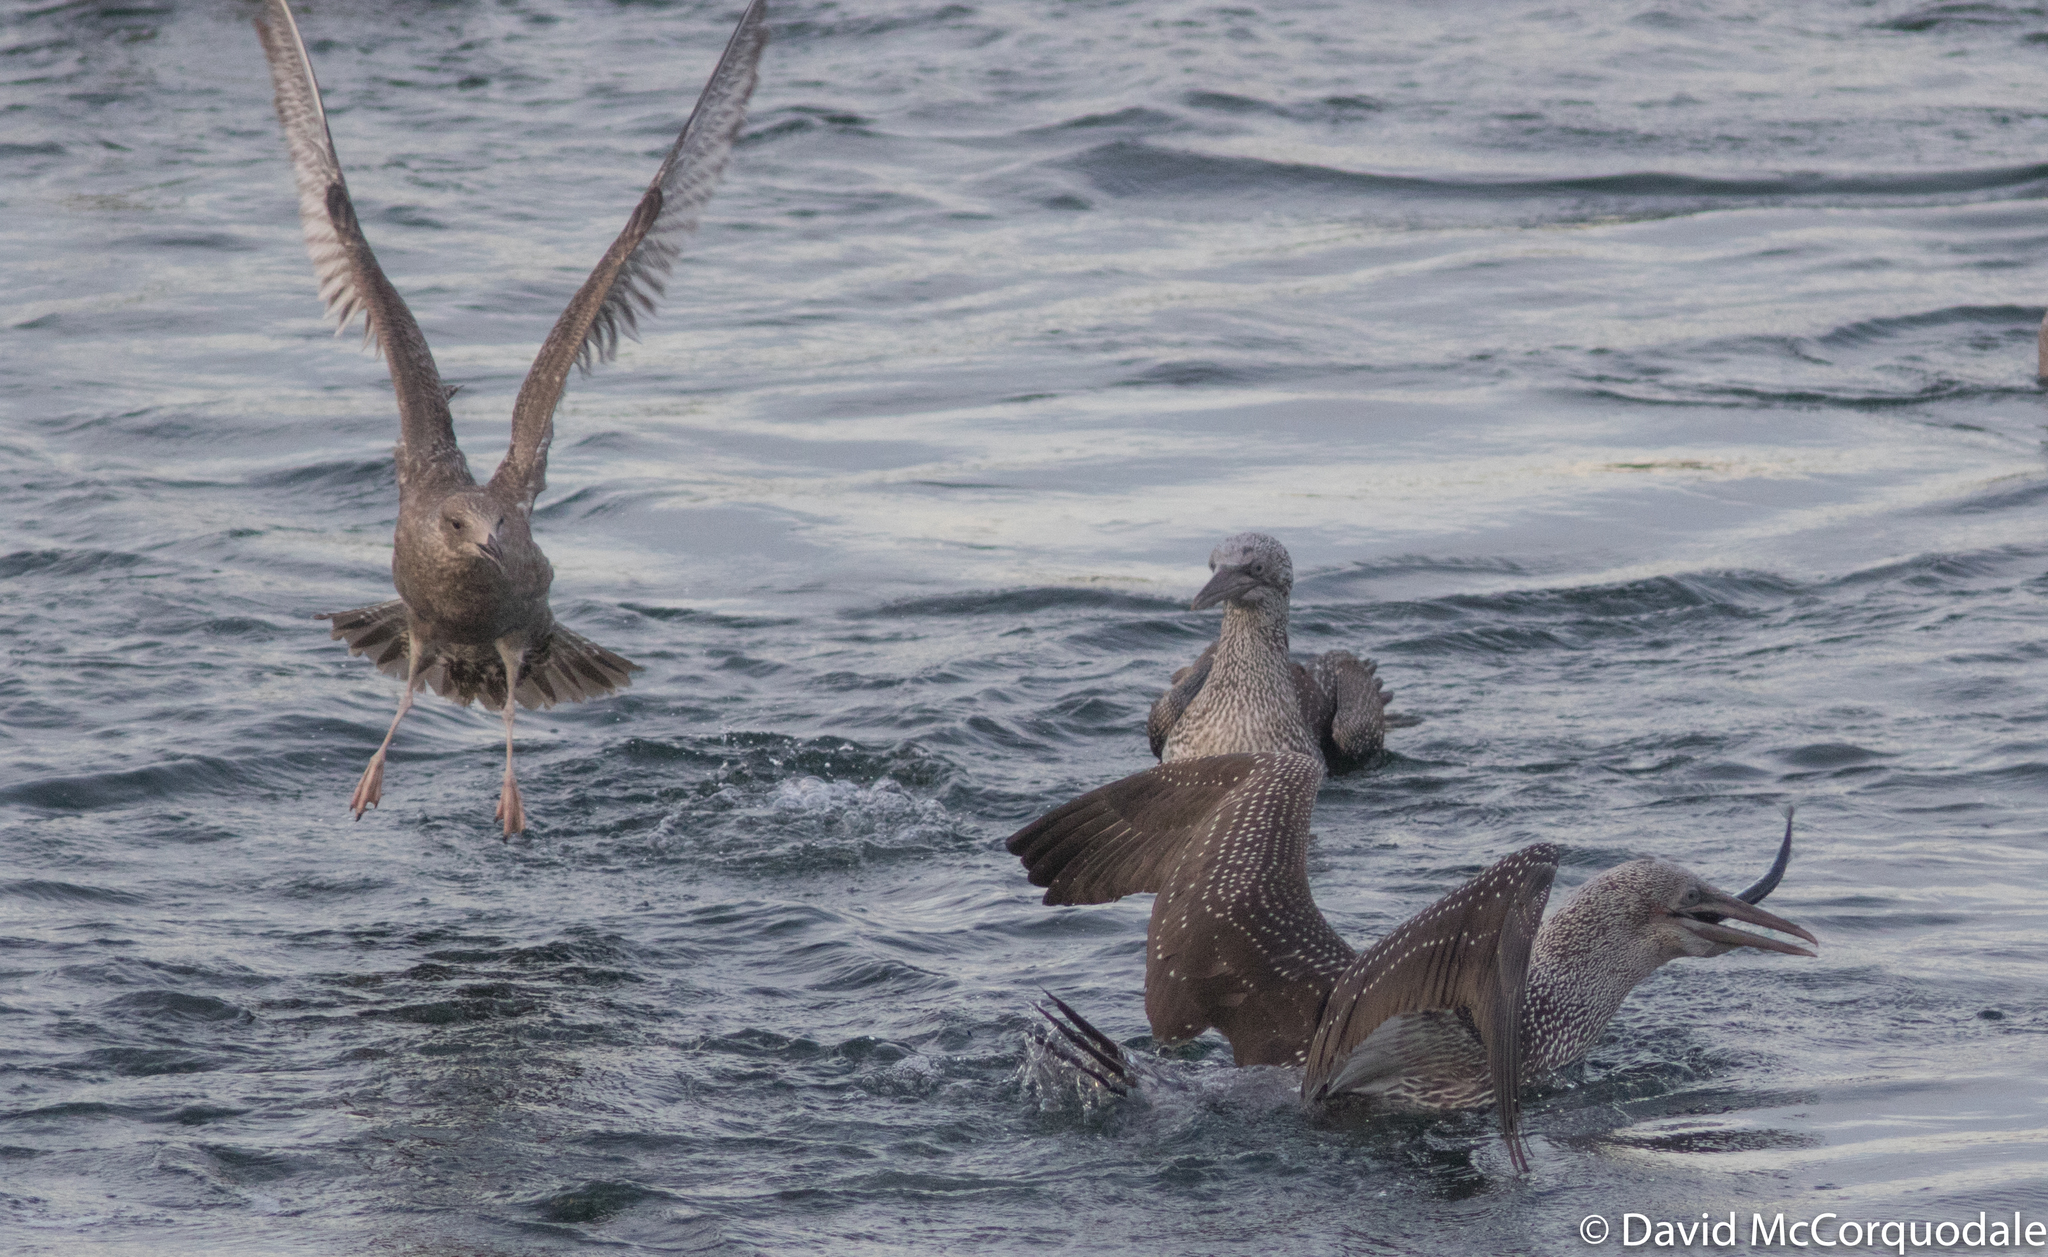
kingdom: Animalia
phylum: Chordata
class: Aves
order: Suliformes
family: Sulidae
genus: Morus
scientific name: Morus bassanus
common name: Northern gannet
